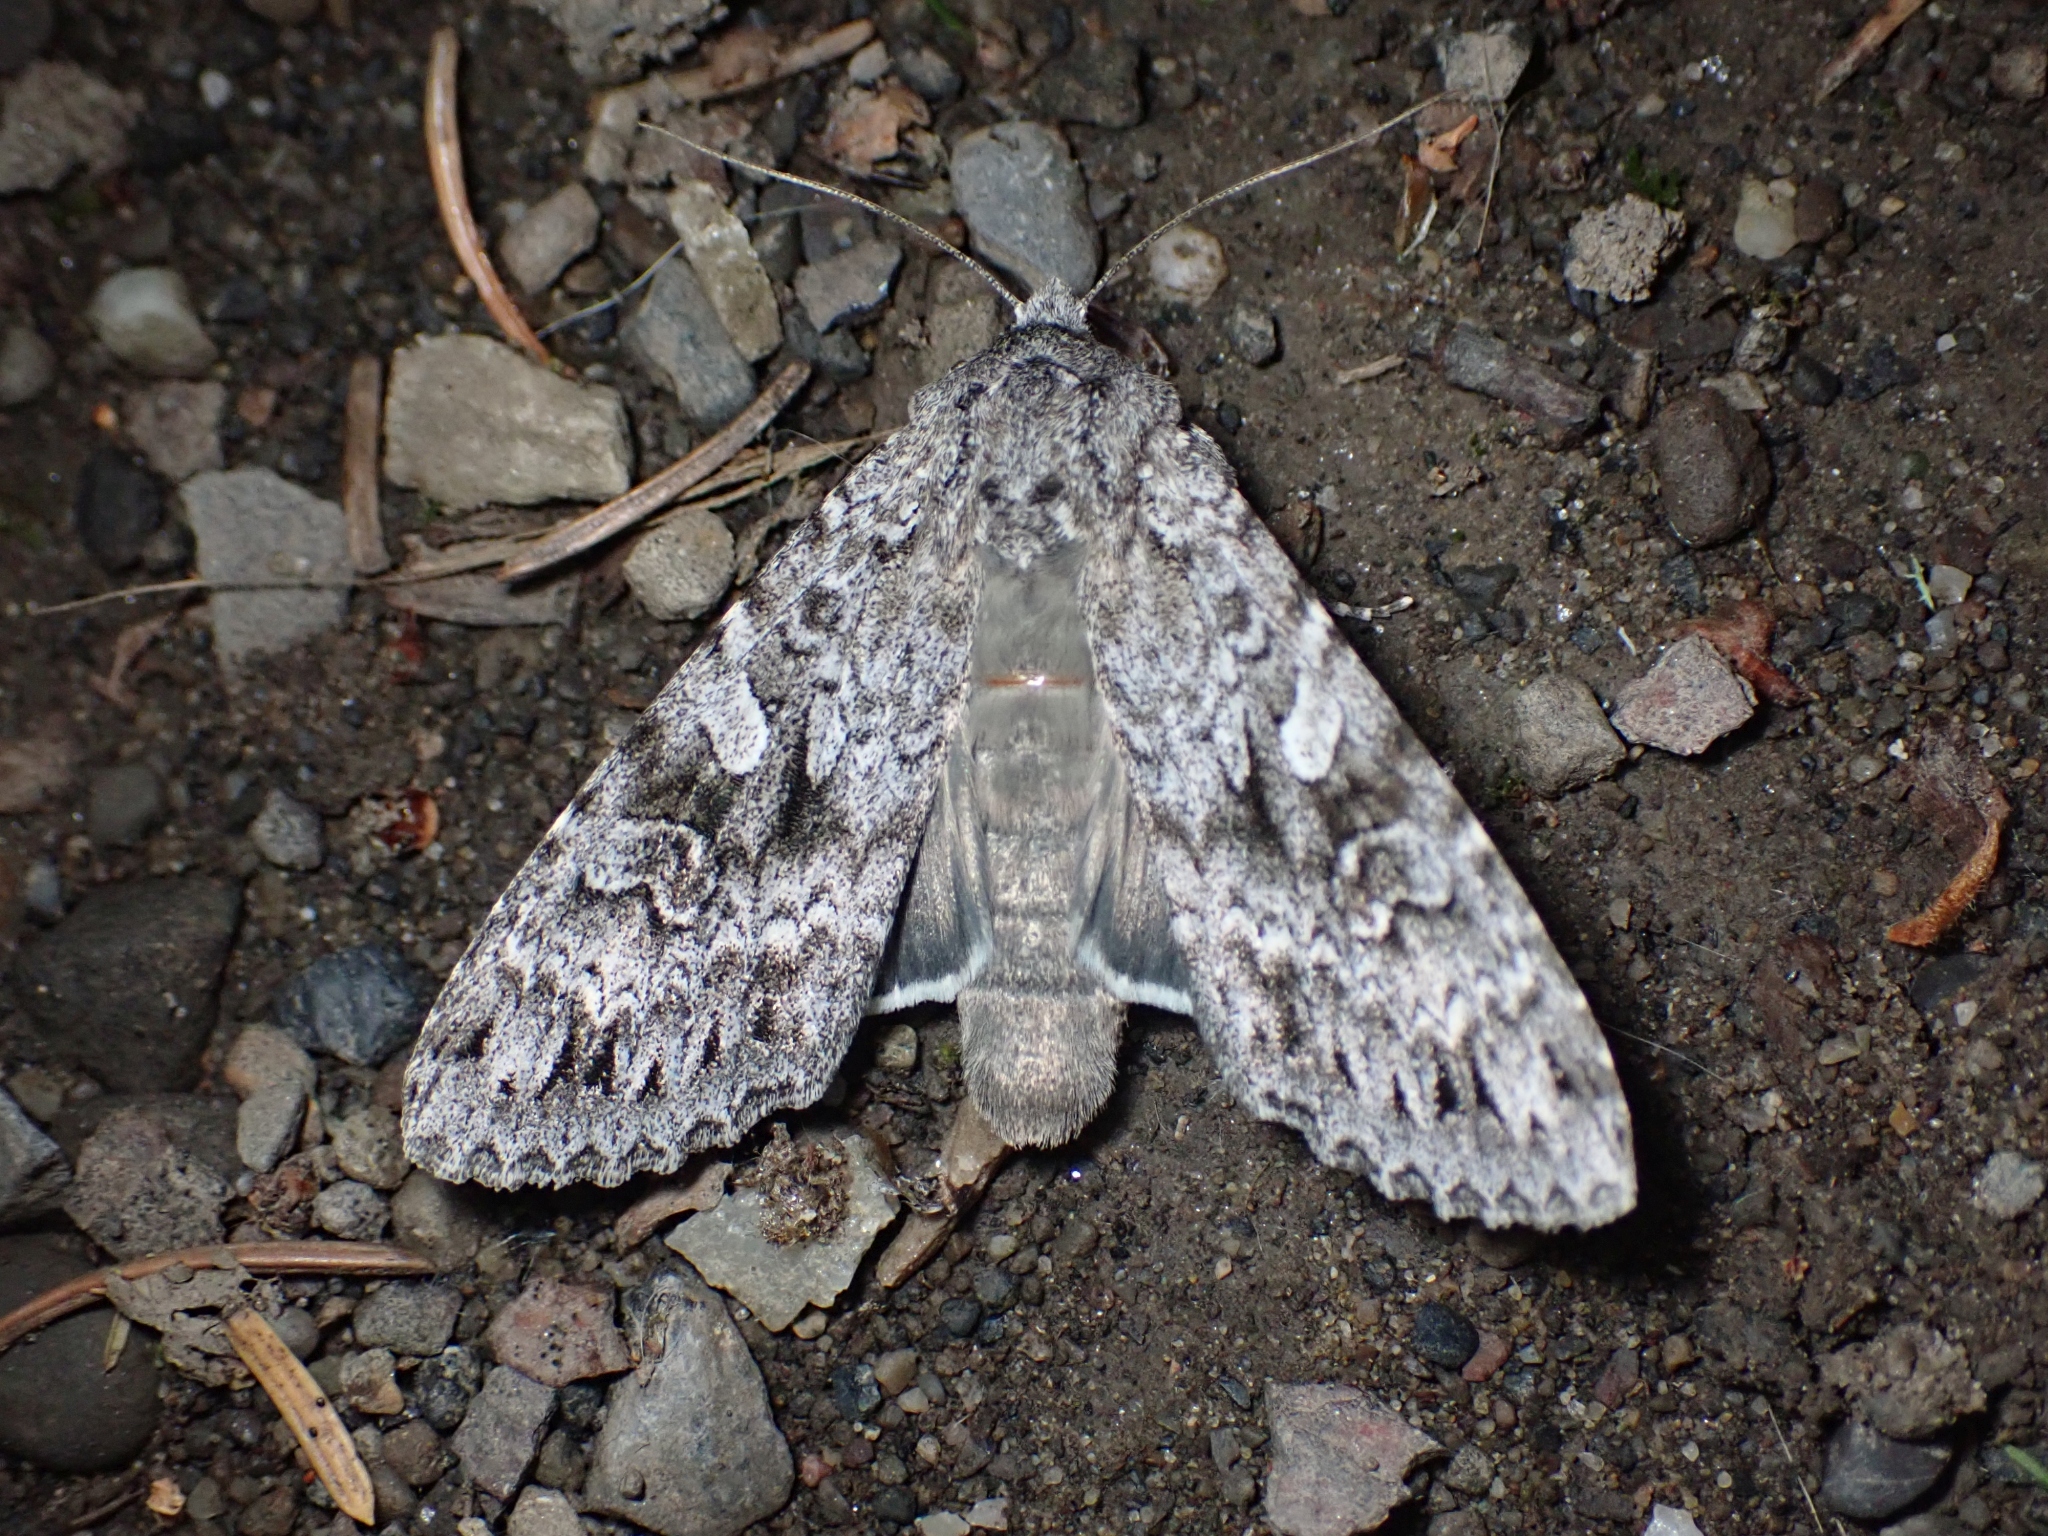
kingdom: Animalia
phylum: Arthropoda
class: Insecta
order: Lepidoptera
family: Noctuidae
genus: Eurois
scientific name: Eurois occulta
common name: Great brocade
